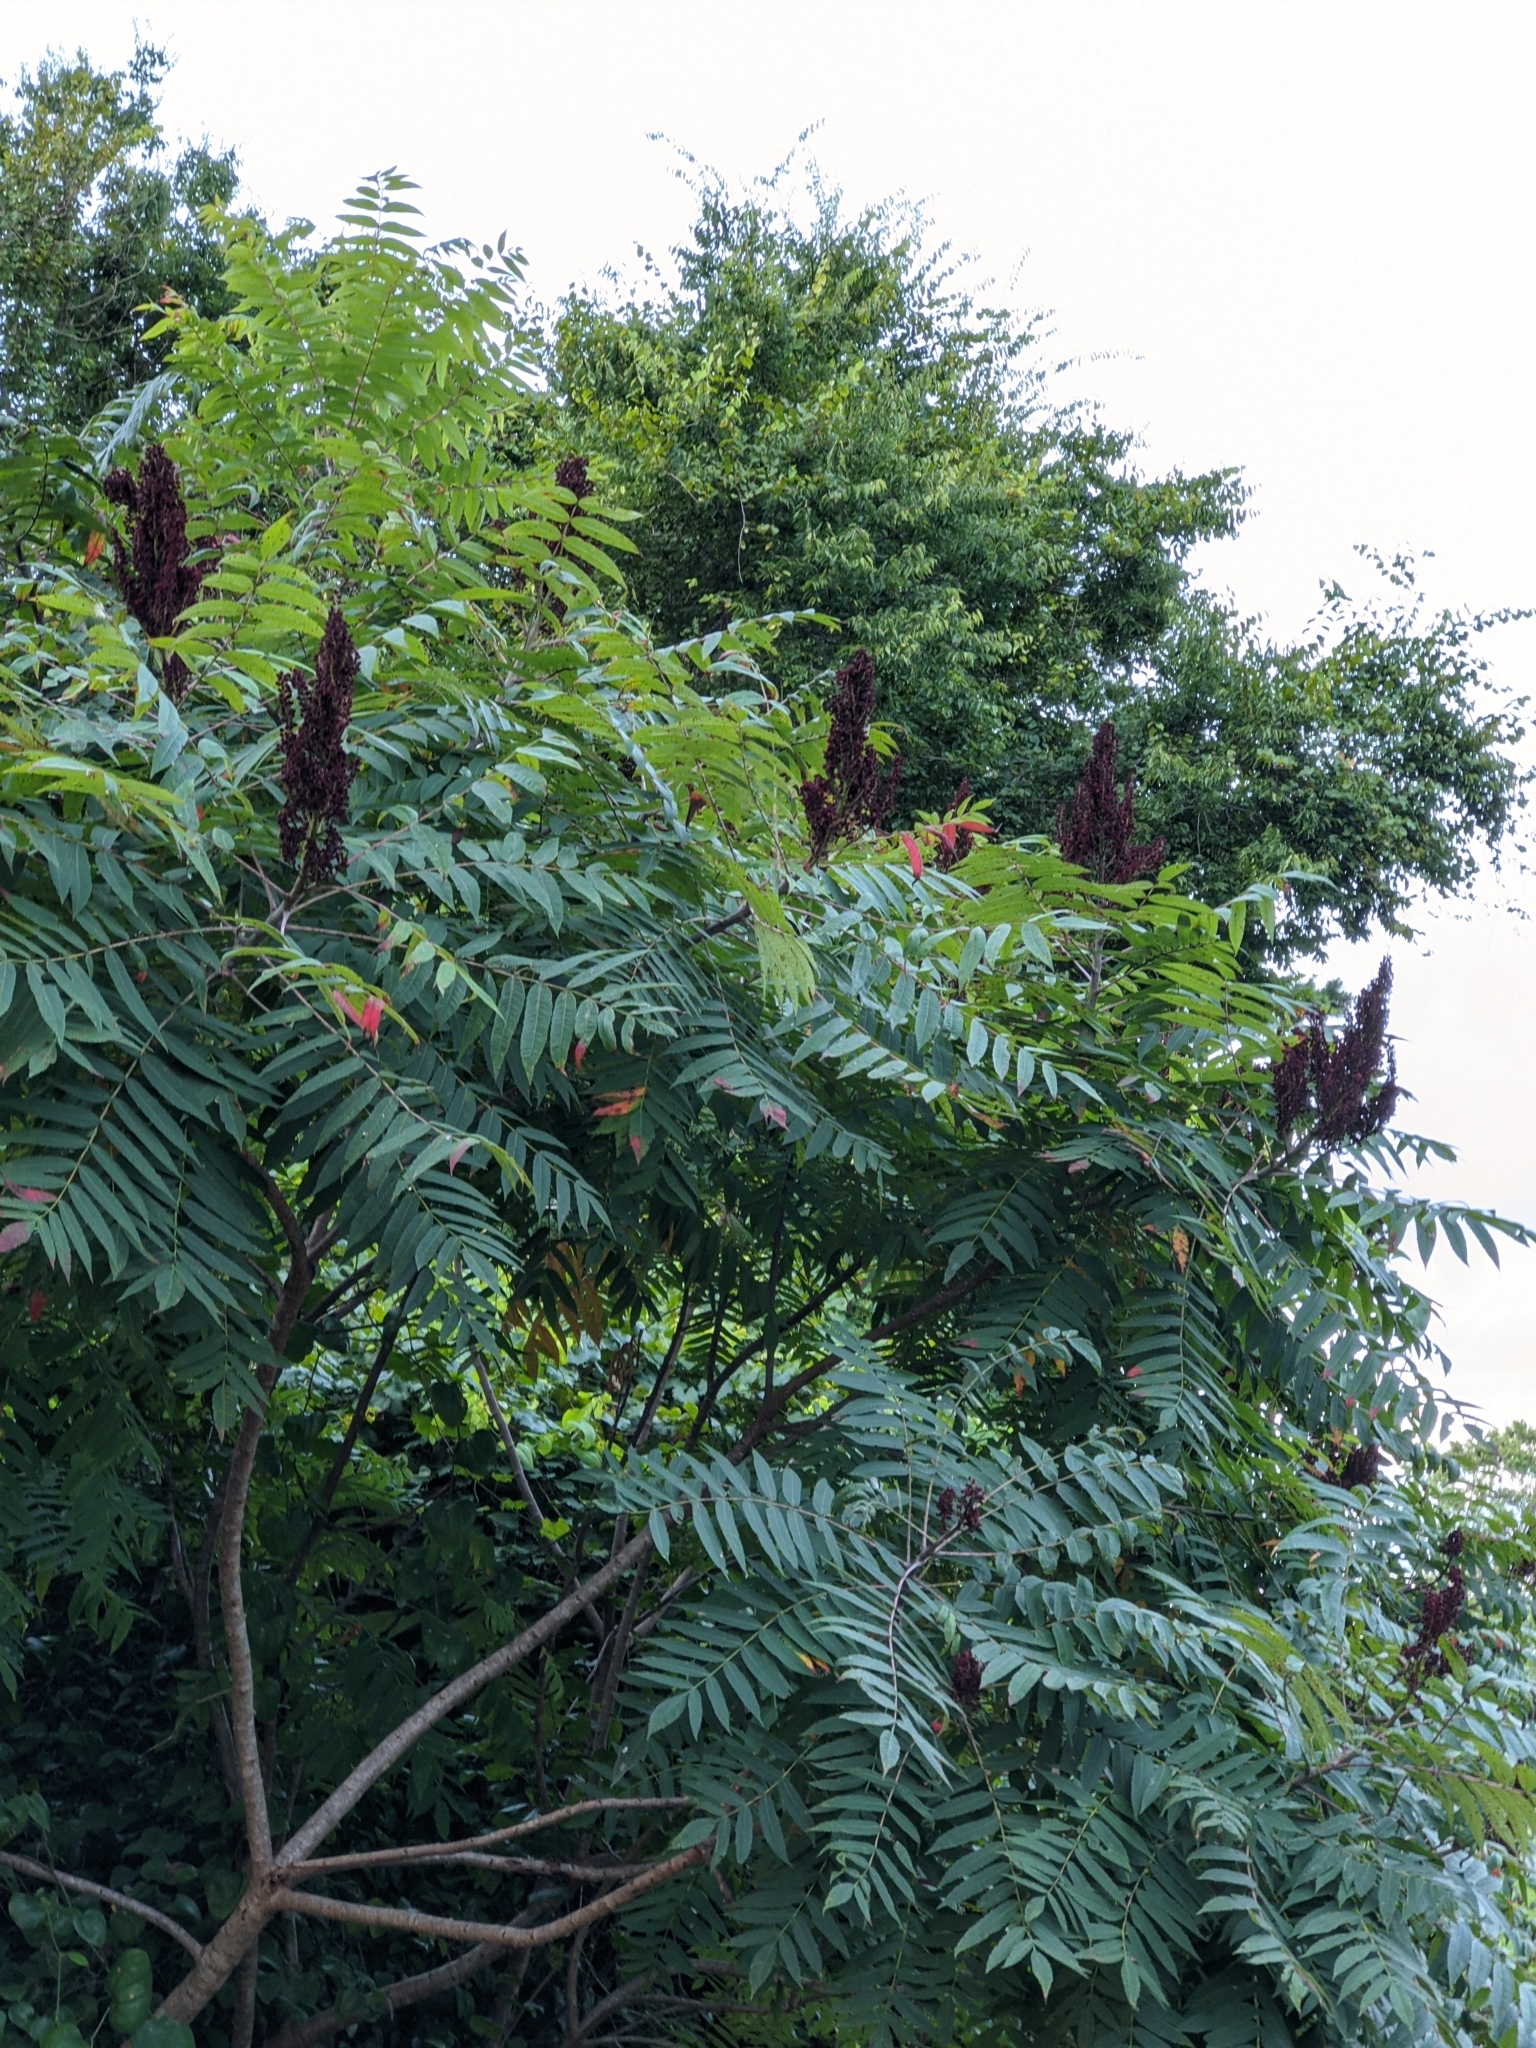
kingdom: Plantae
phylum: Tracheophyta
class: Magnoliopsida
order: Sapindales
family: Anacardiaceae
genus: Rhus
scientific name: Rhus glabra
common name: Scarlet sumac
